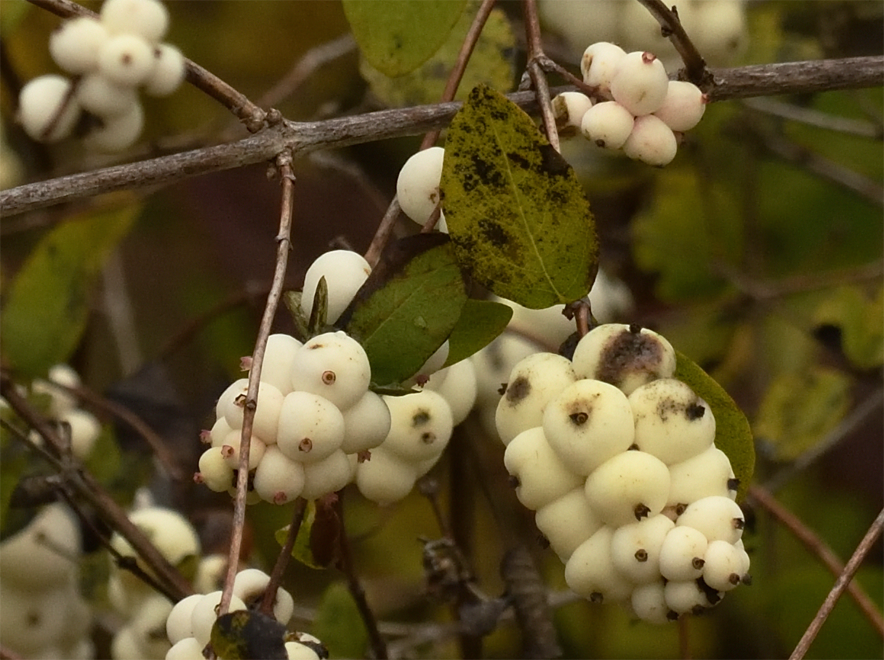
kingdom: Plantae
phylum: Tracheophyta
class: Magnoliopsida
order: Dipsacales
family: Caprifoliaceae
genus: Symphoricarpos
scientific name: Symphoricarpos albus
